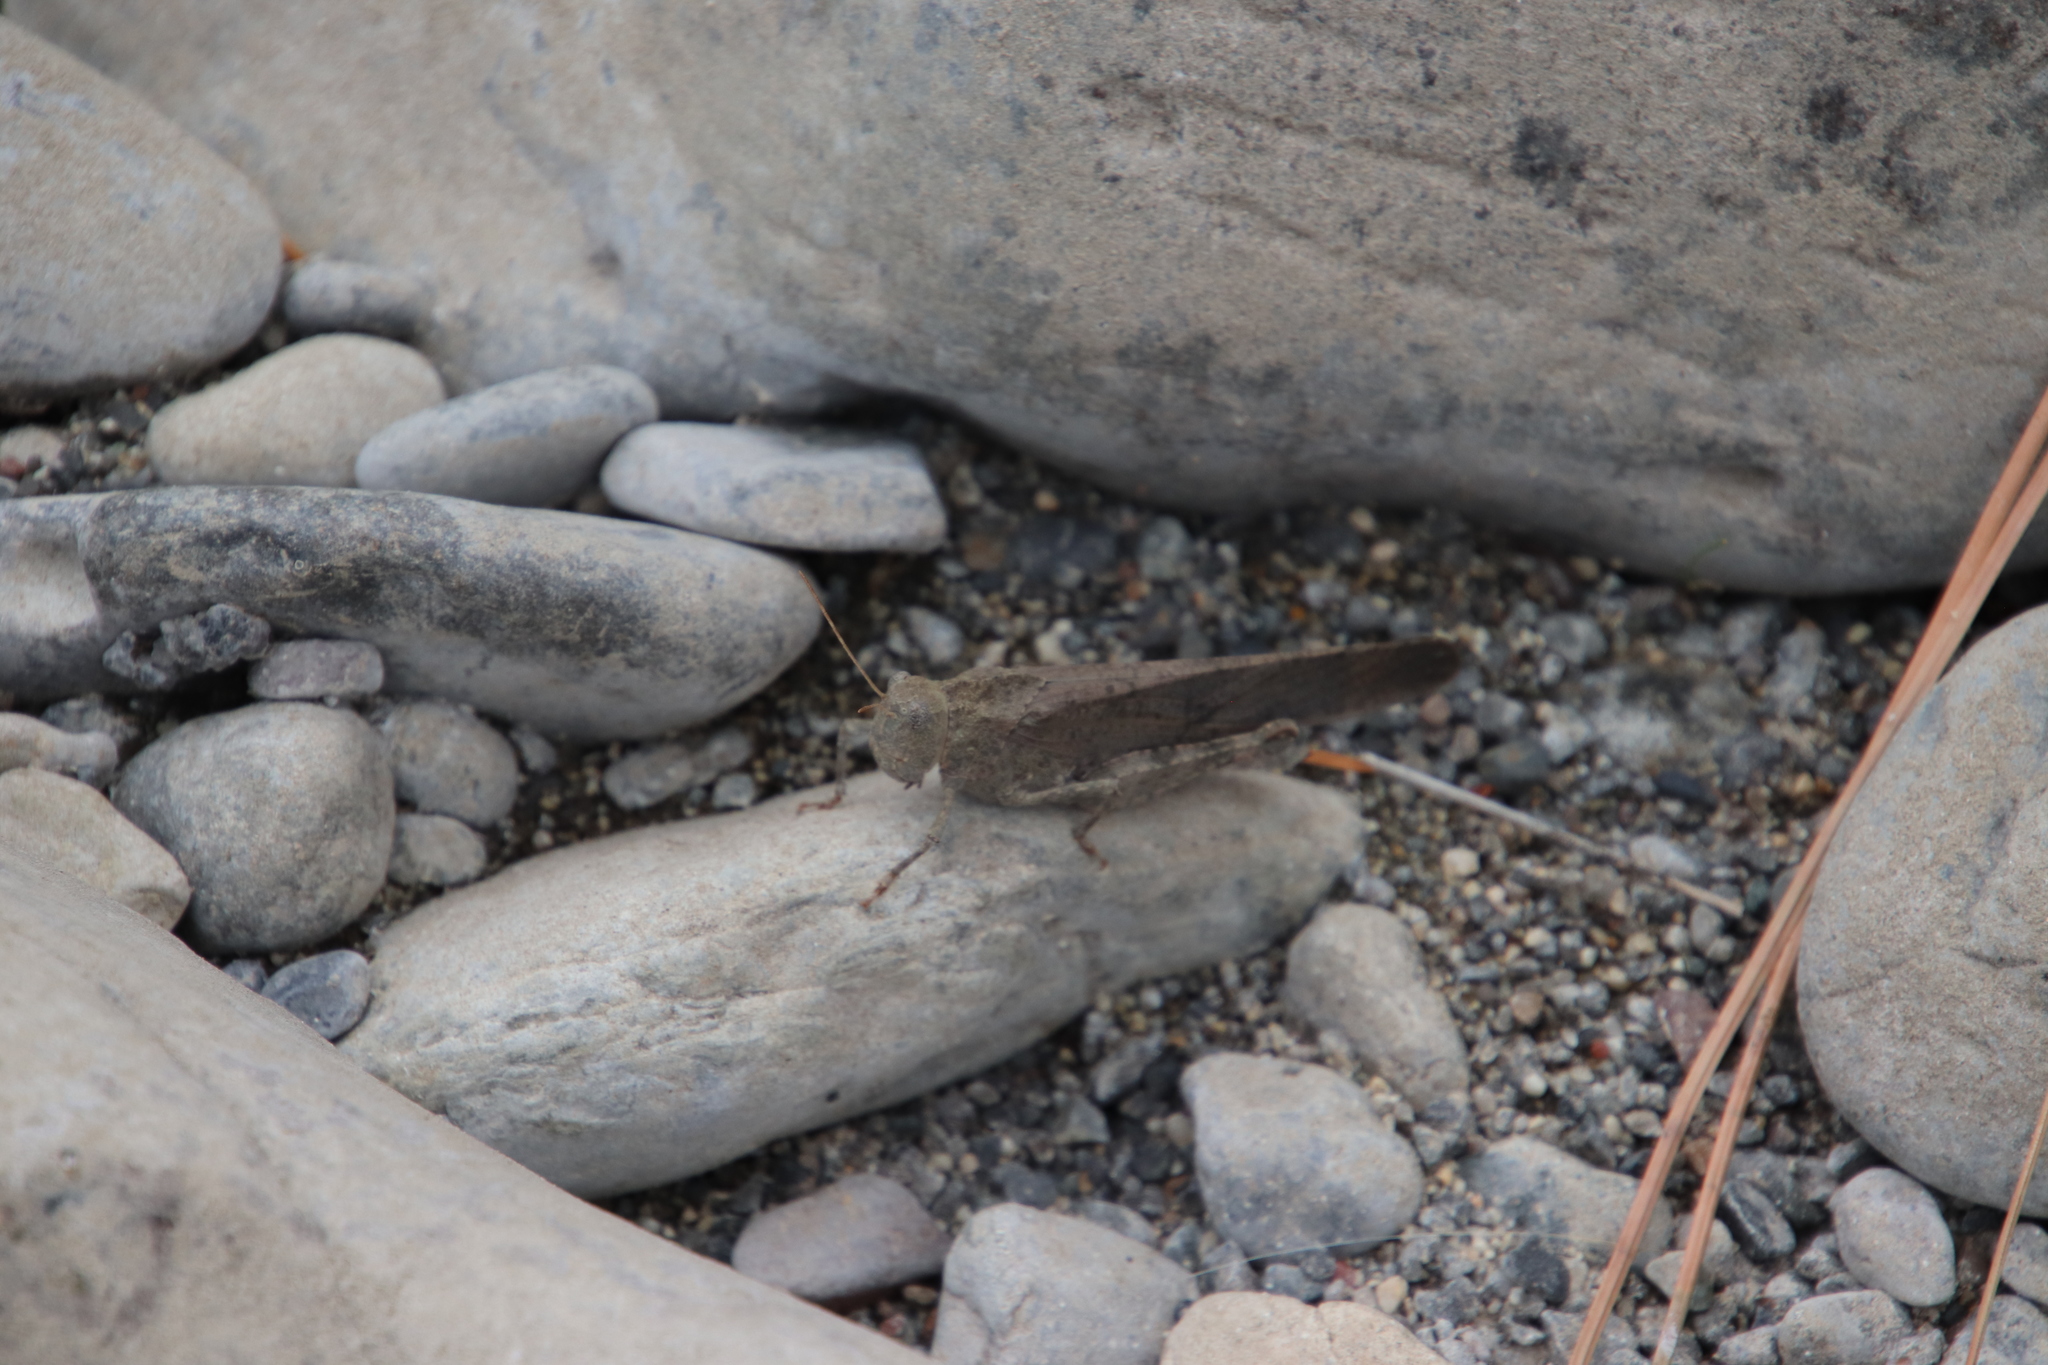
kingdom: Animalia
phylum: Arthropoda
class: Insecta
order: Orthoptera
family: Acrididae
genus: Dissosteira
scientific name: Dissosteira carolina
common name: Carolina grasshopper
